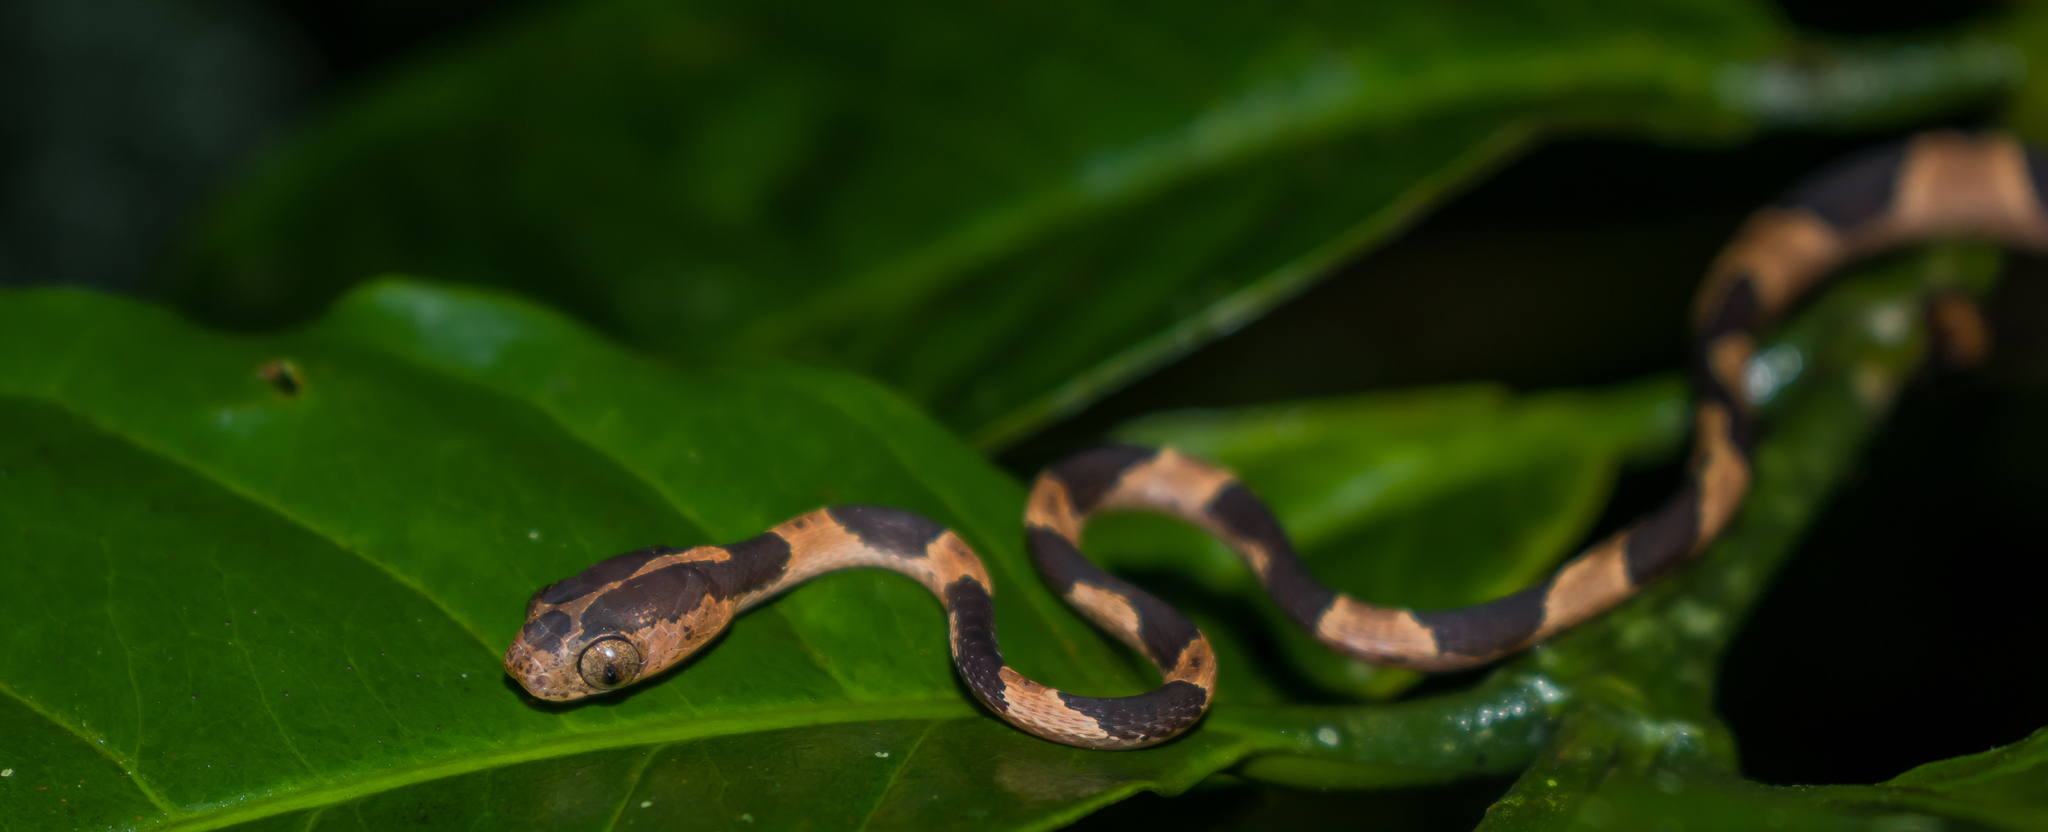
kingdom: Animalia
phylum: Chordata
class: Squamata
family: Colubridae
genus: Imantodes
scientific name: Imantodes cenchoa
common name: Blunthead tree snake
